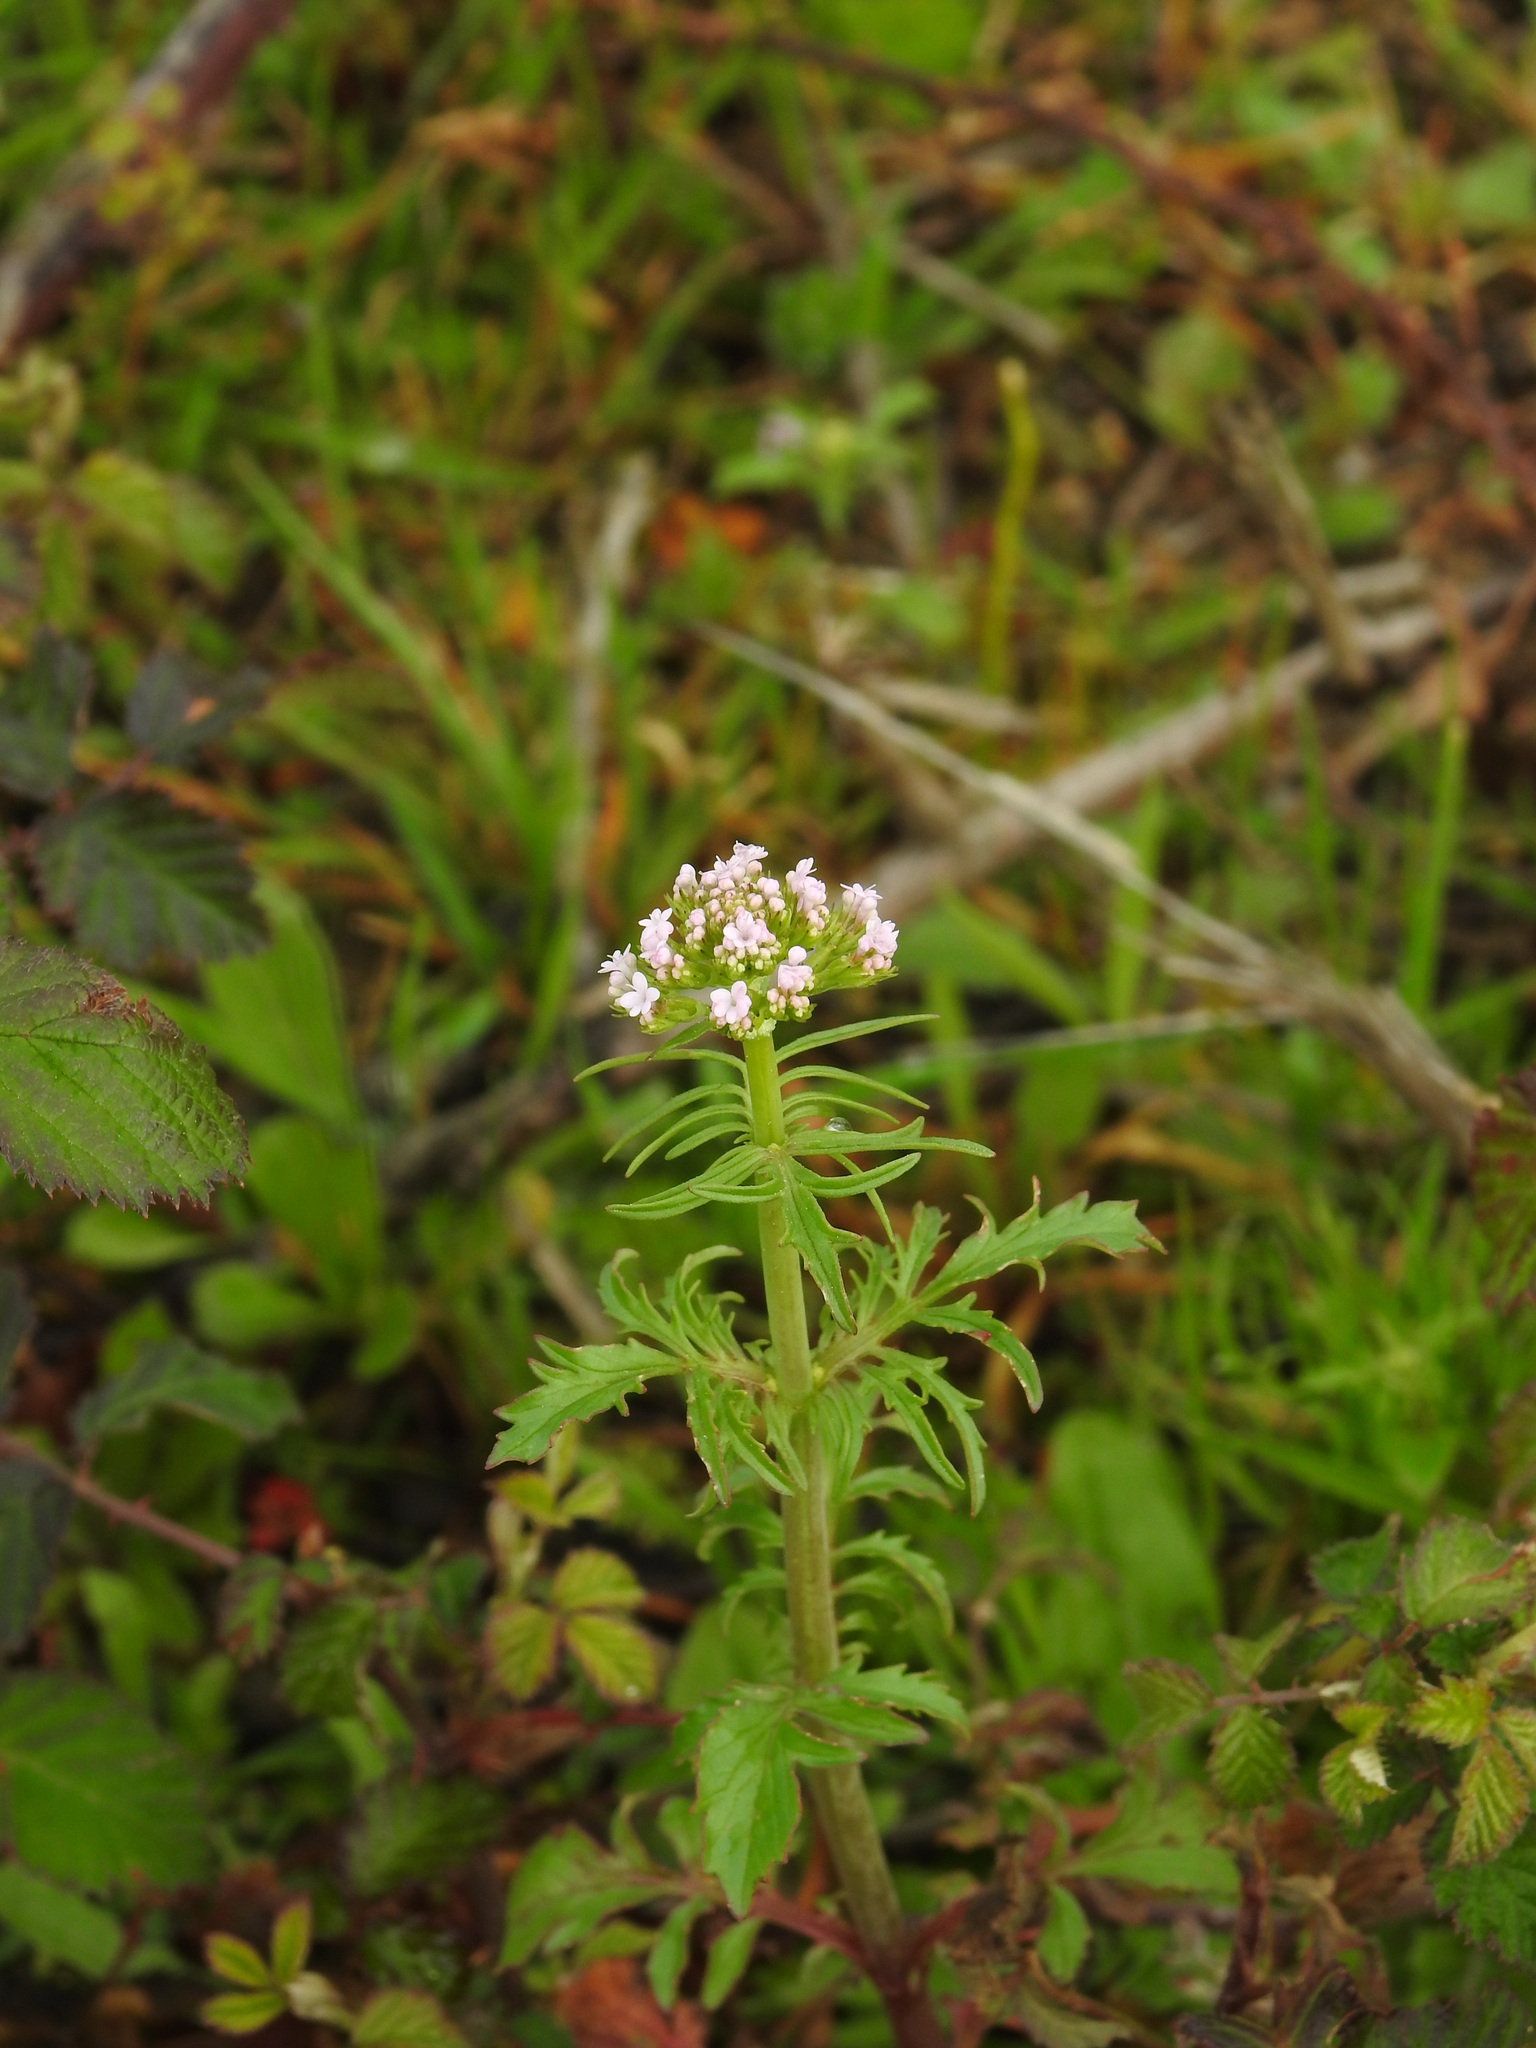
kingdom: Plantae
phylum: Tracheophyta
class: Magnoliopsida
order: Dipsacales
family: Caprifoliaceae
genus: Centranthus
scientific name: Centranthus calcitrapae
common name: Annual valerian
